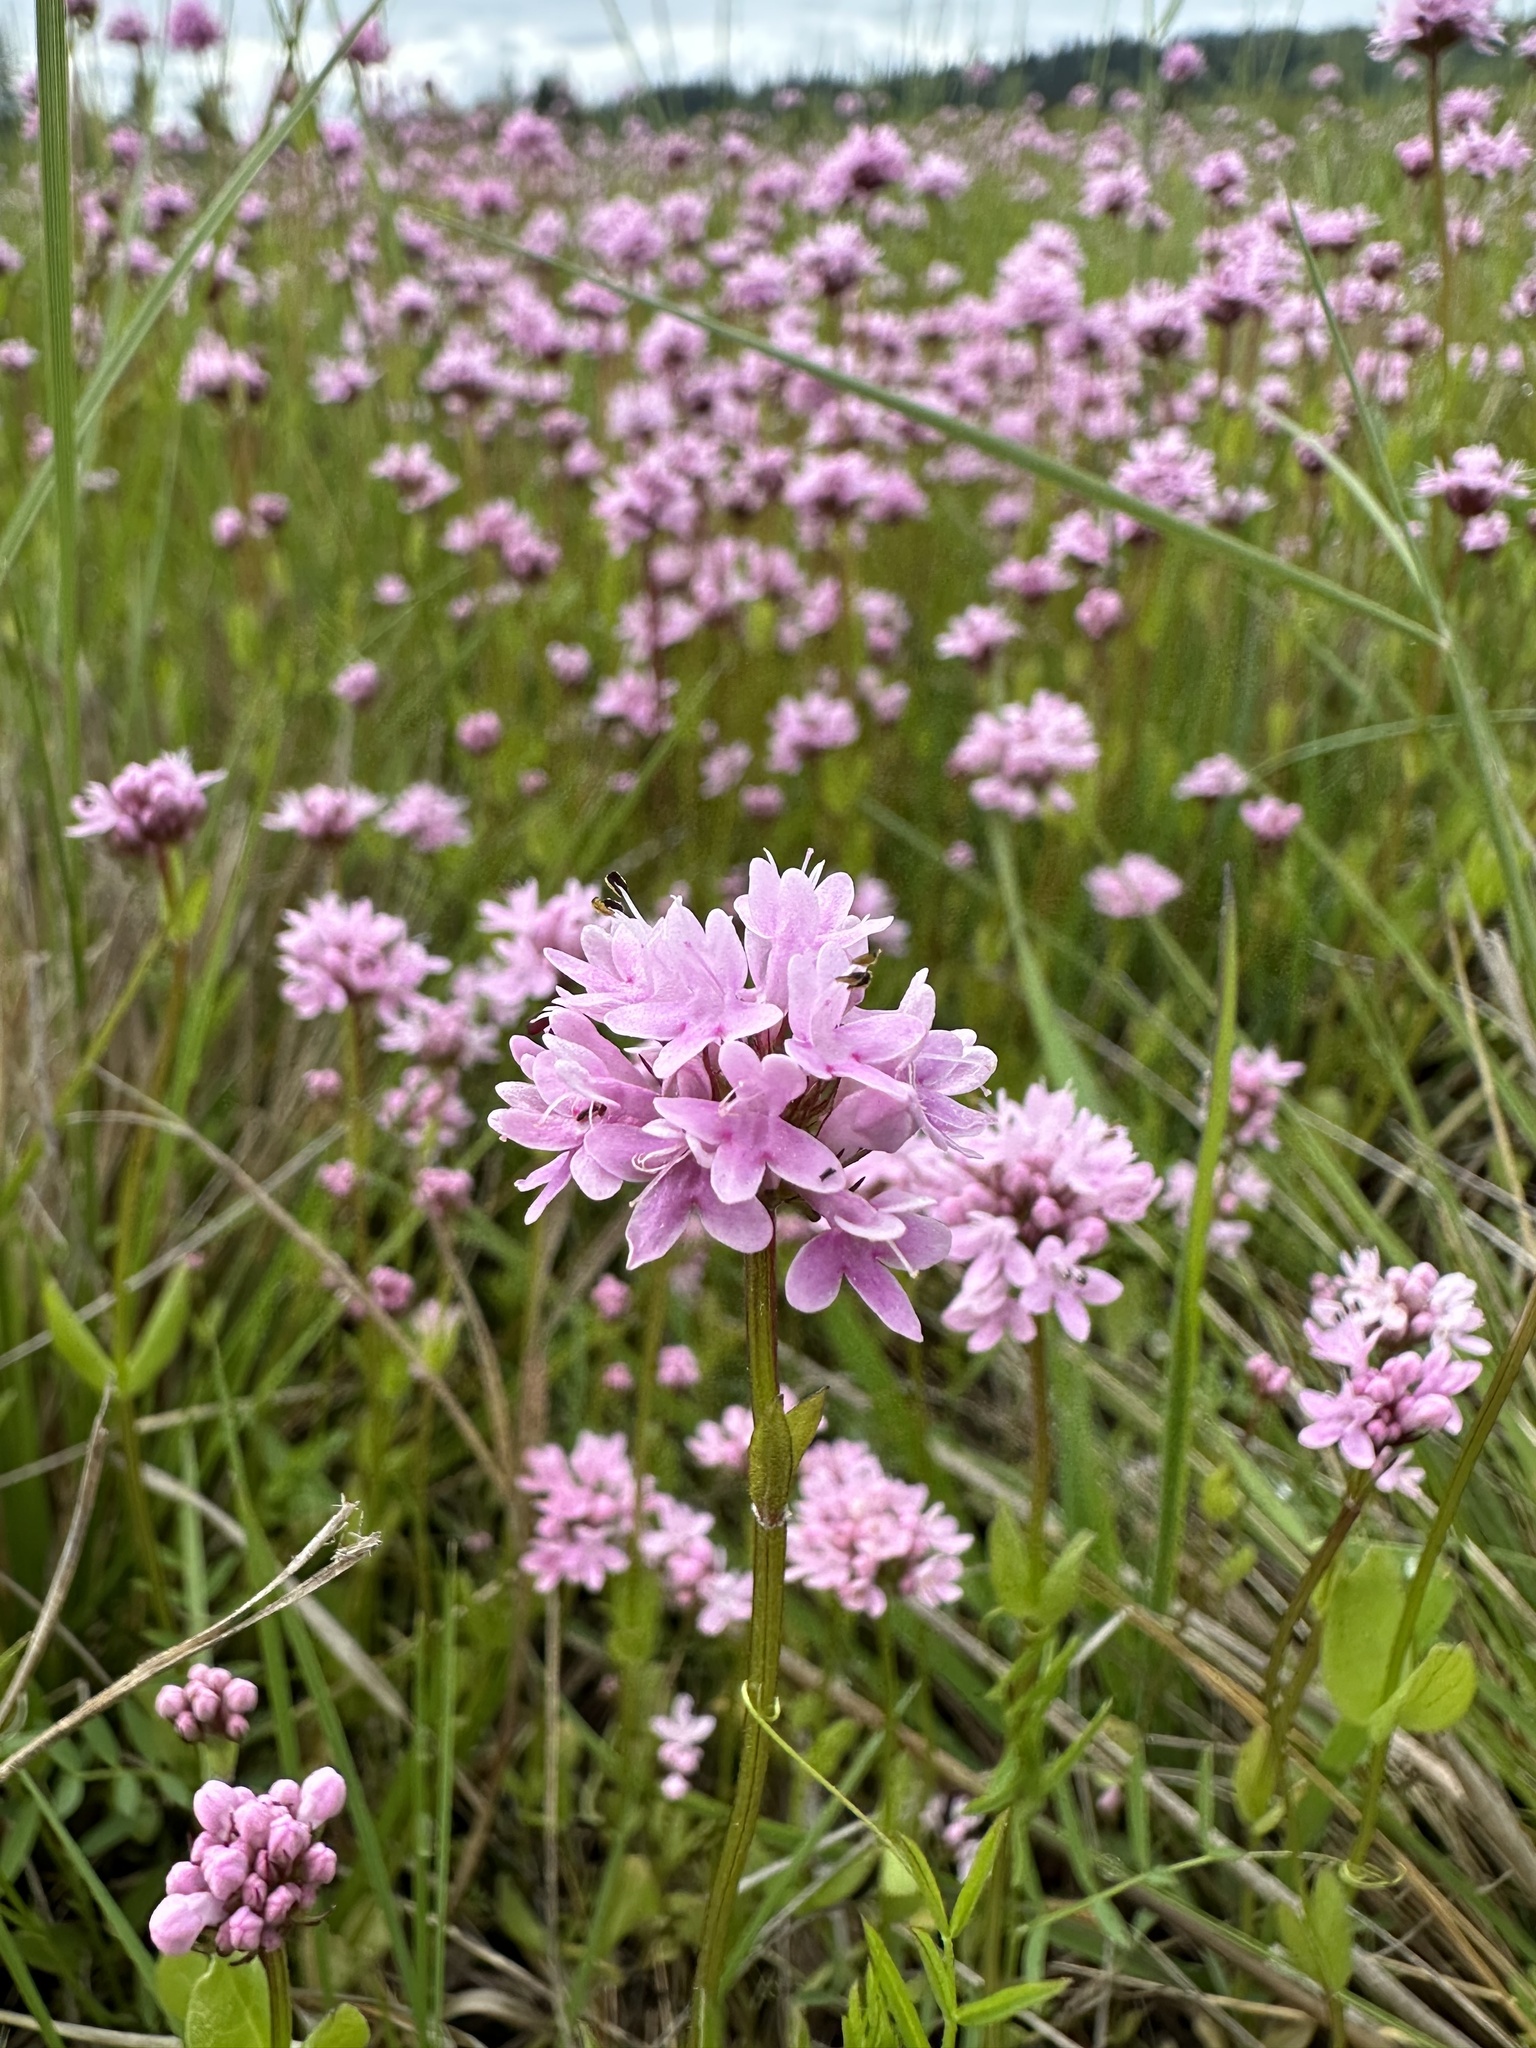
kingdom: Plantae
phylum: Tracheophyta
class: Magnoliopsida
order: Dipsacales
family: Caprifoliaceae
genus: Plectritis
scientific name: Plectritis congesta
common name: Pink plectritis
